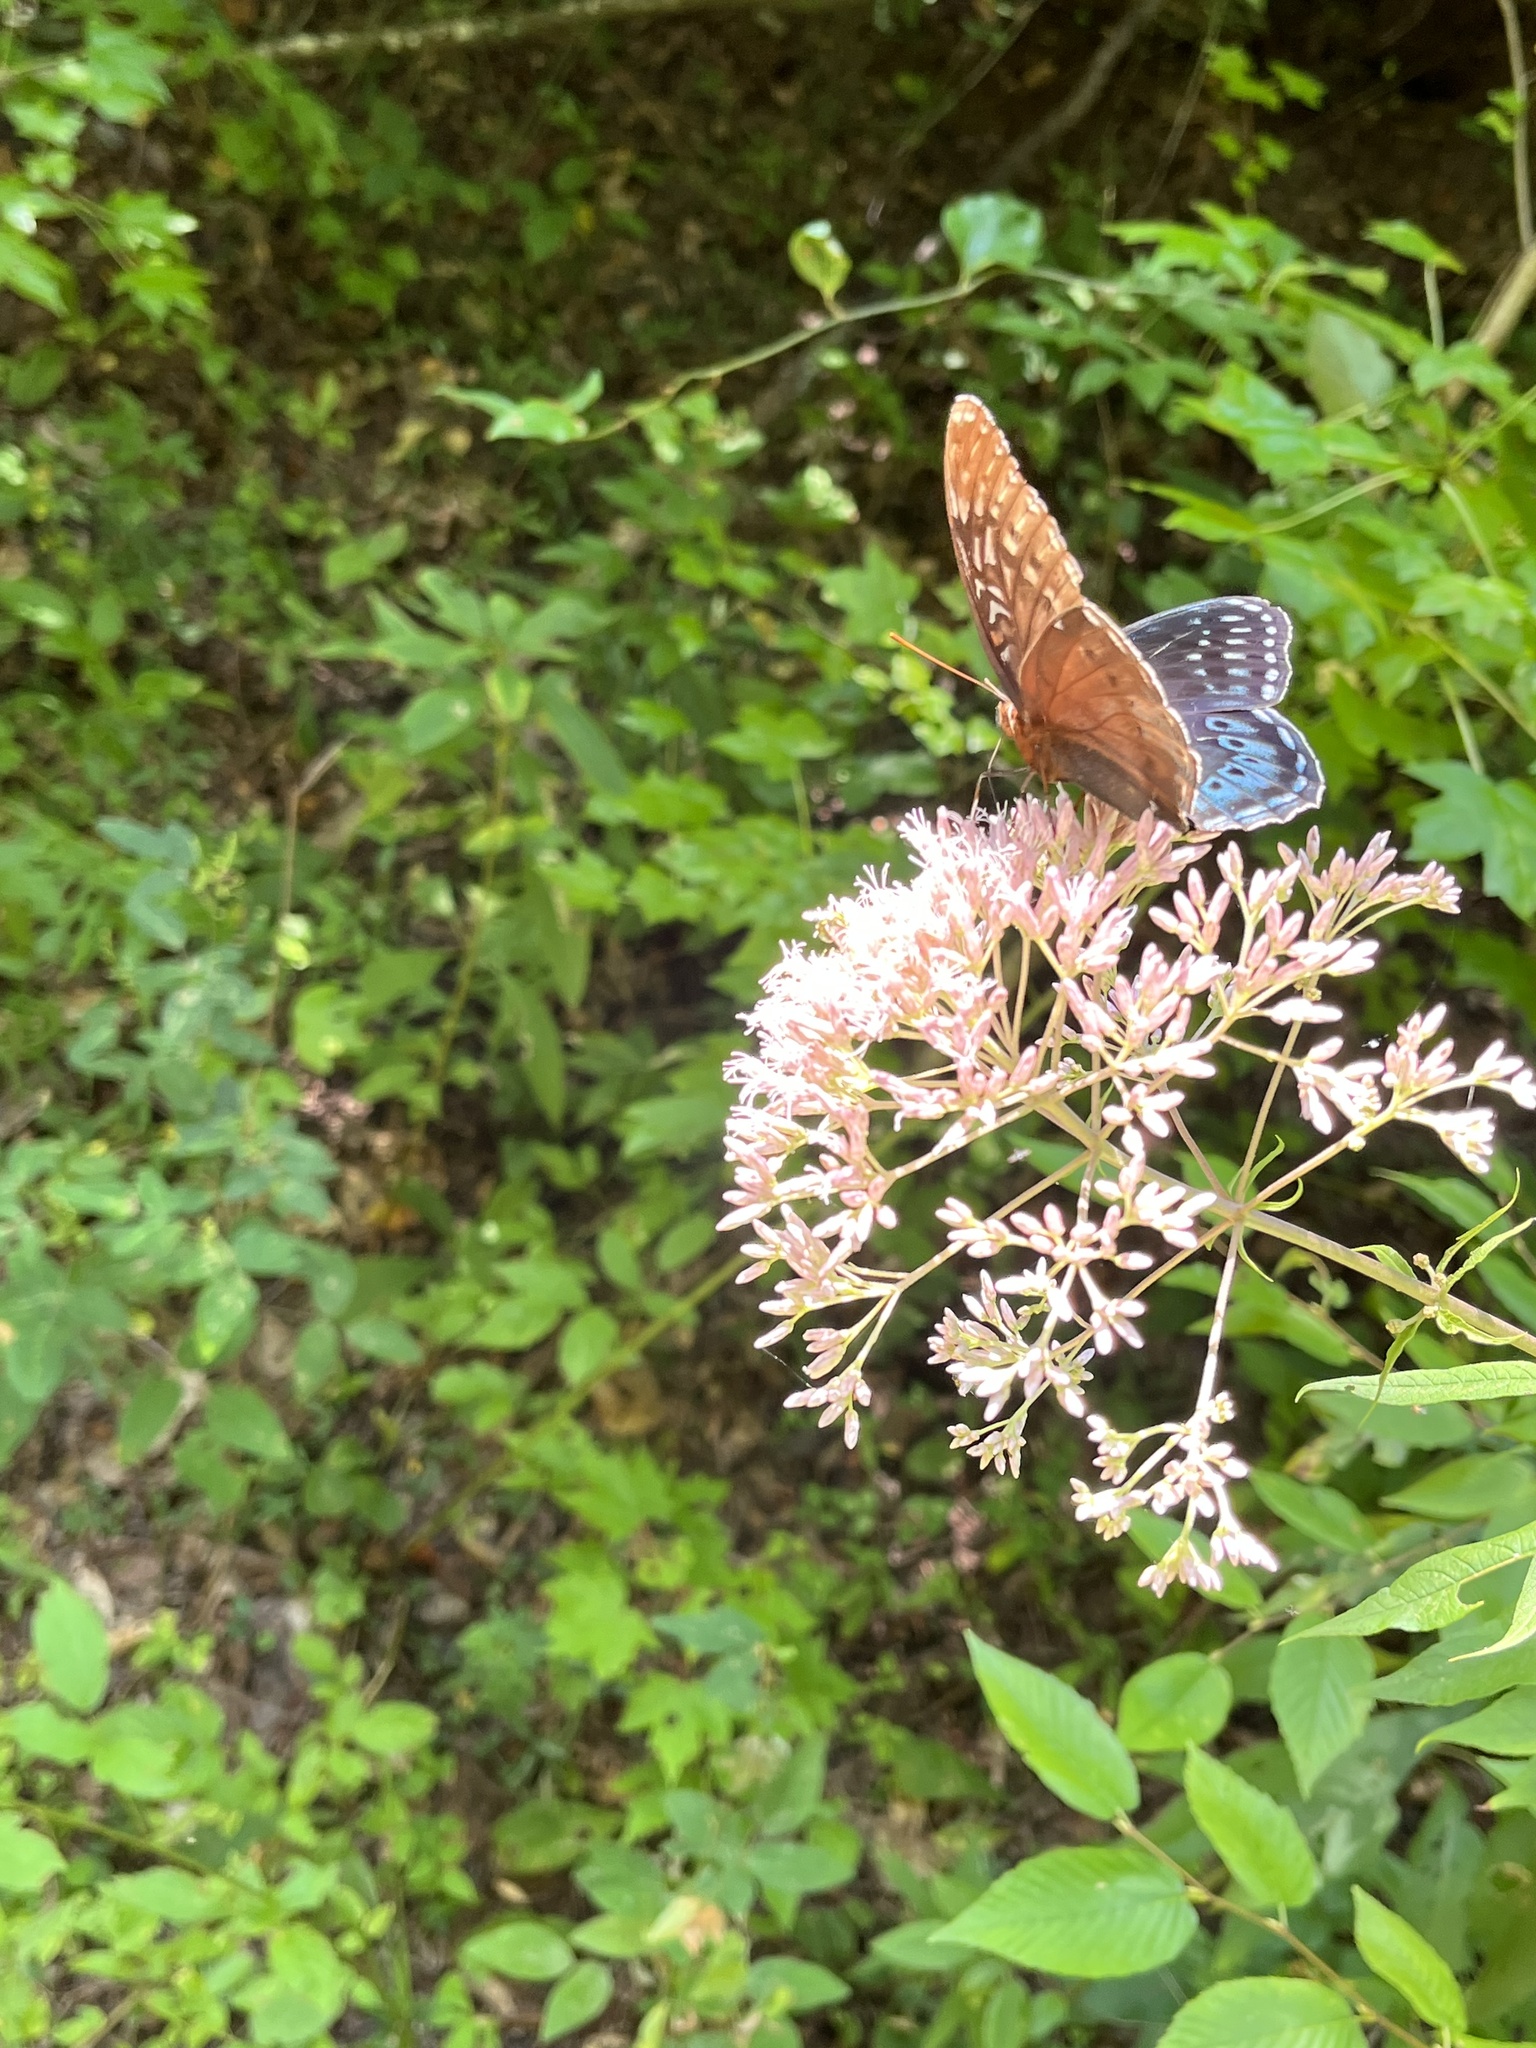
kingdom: Animalia
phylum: Arthropoda
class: Insecta
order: Lepidoptera
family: Nymphalidae
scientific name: Nymphalidae
